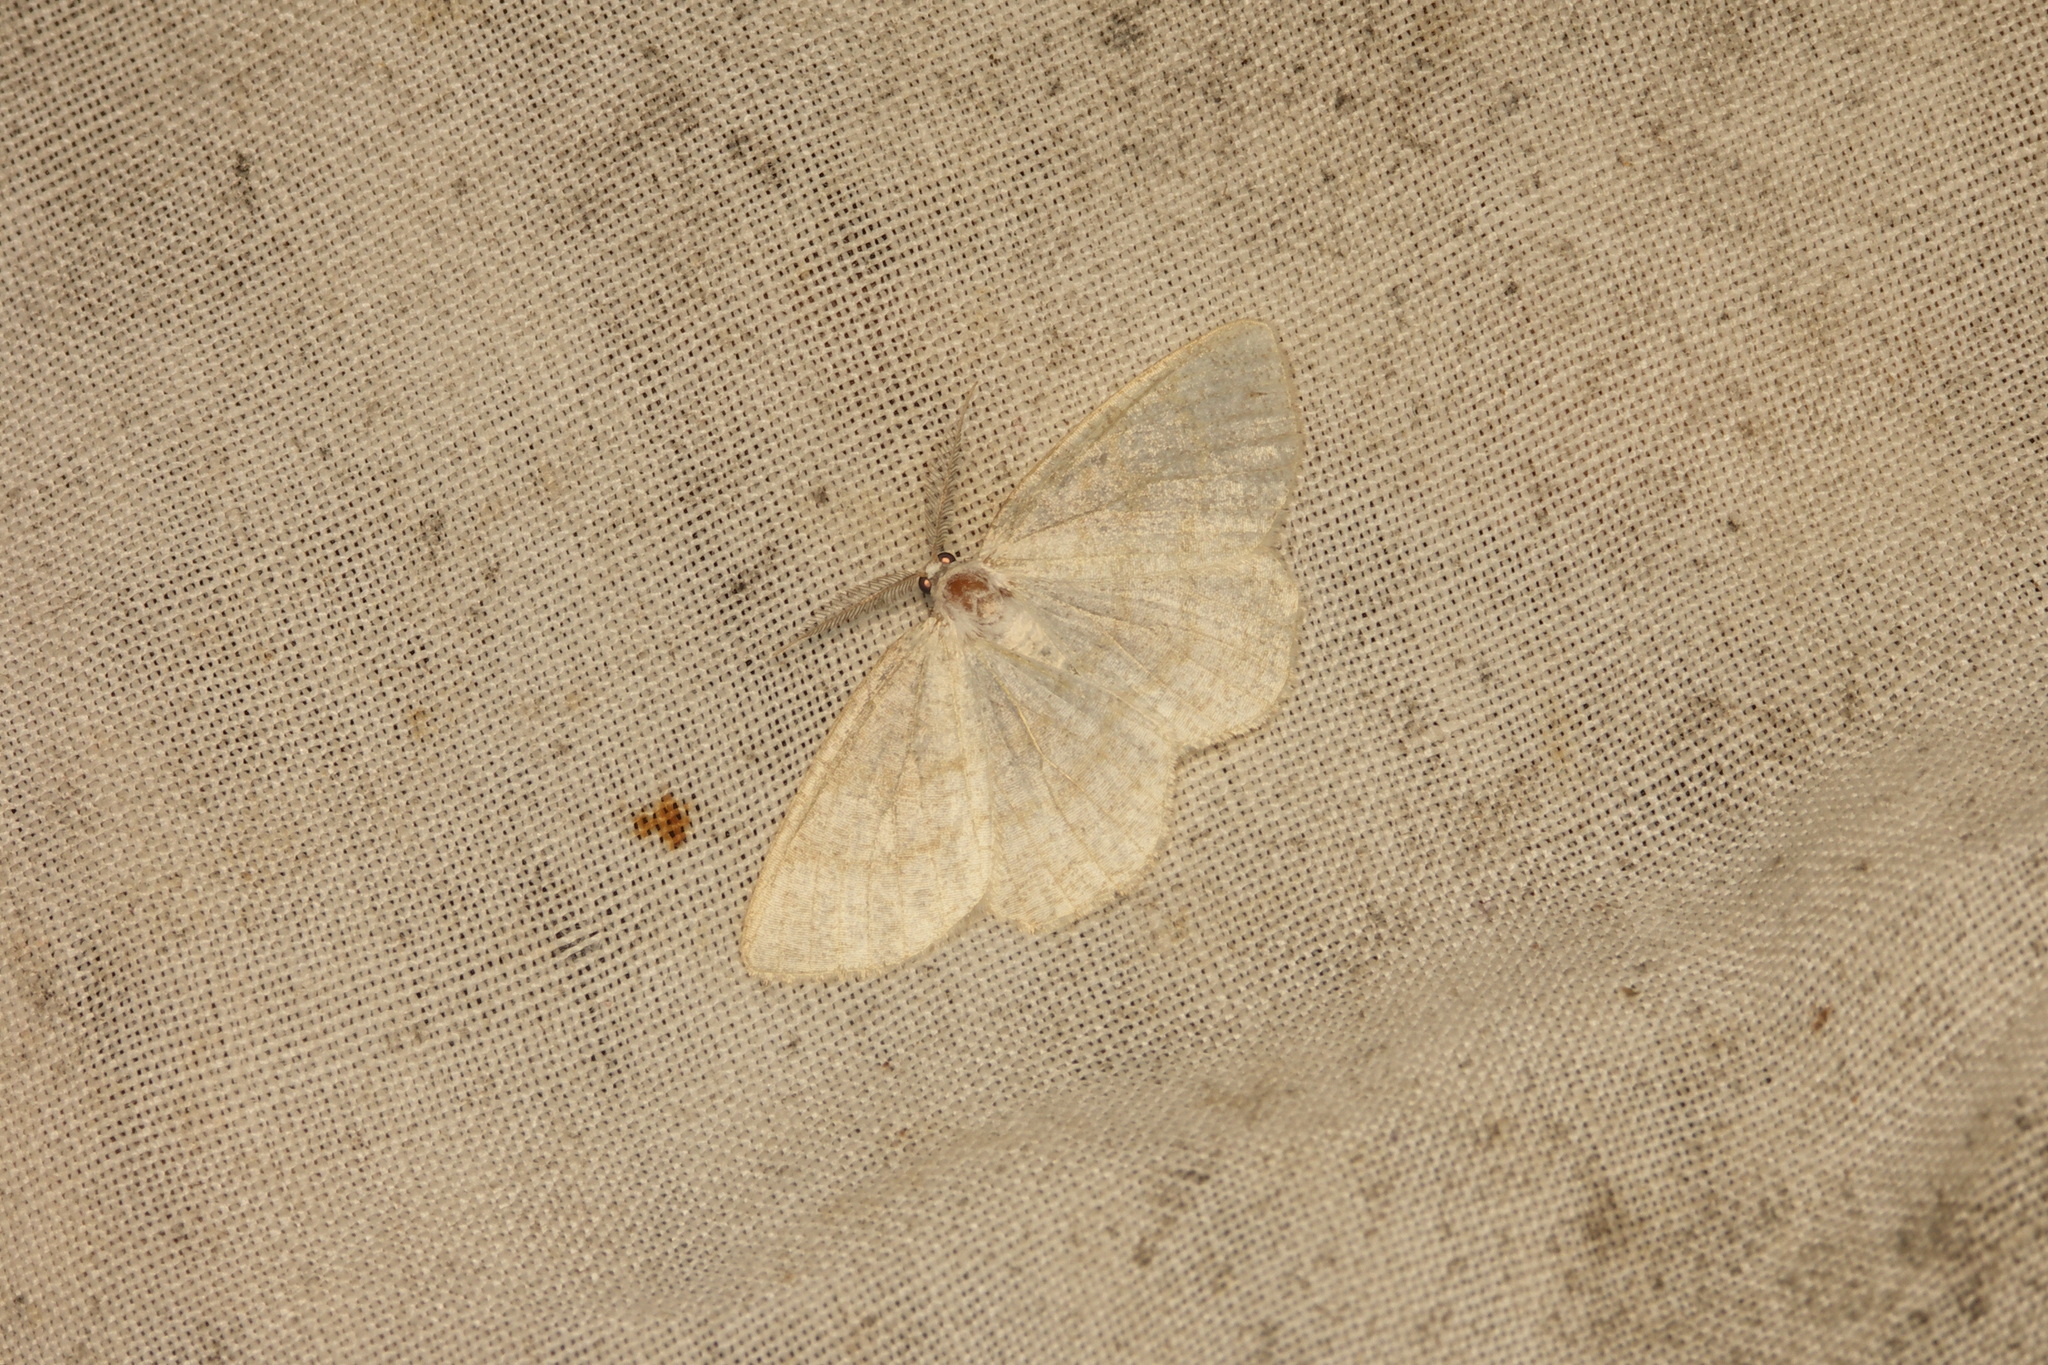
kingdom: Animalia
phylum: Arthropoda
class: Insecta
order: Lepidoptera
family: Geometridae
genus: Cabera
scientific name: Cabera exanthemata
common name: Common wave
